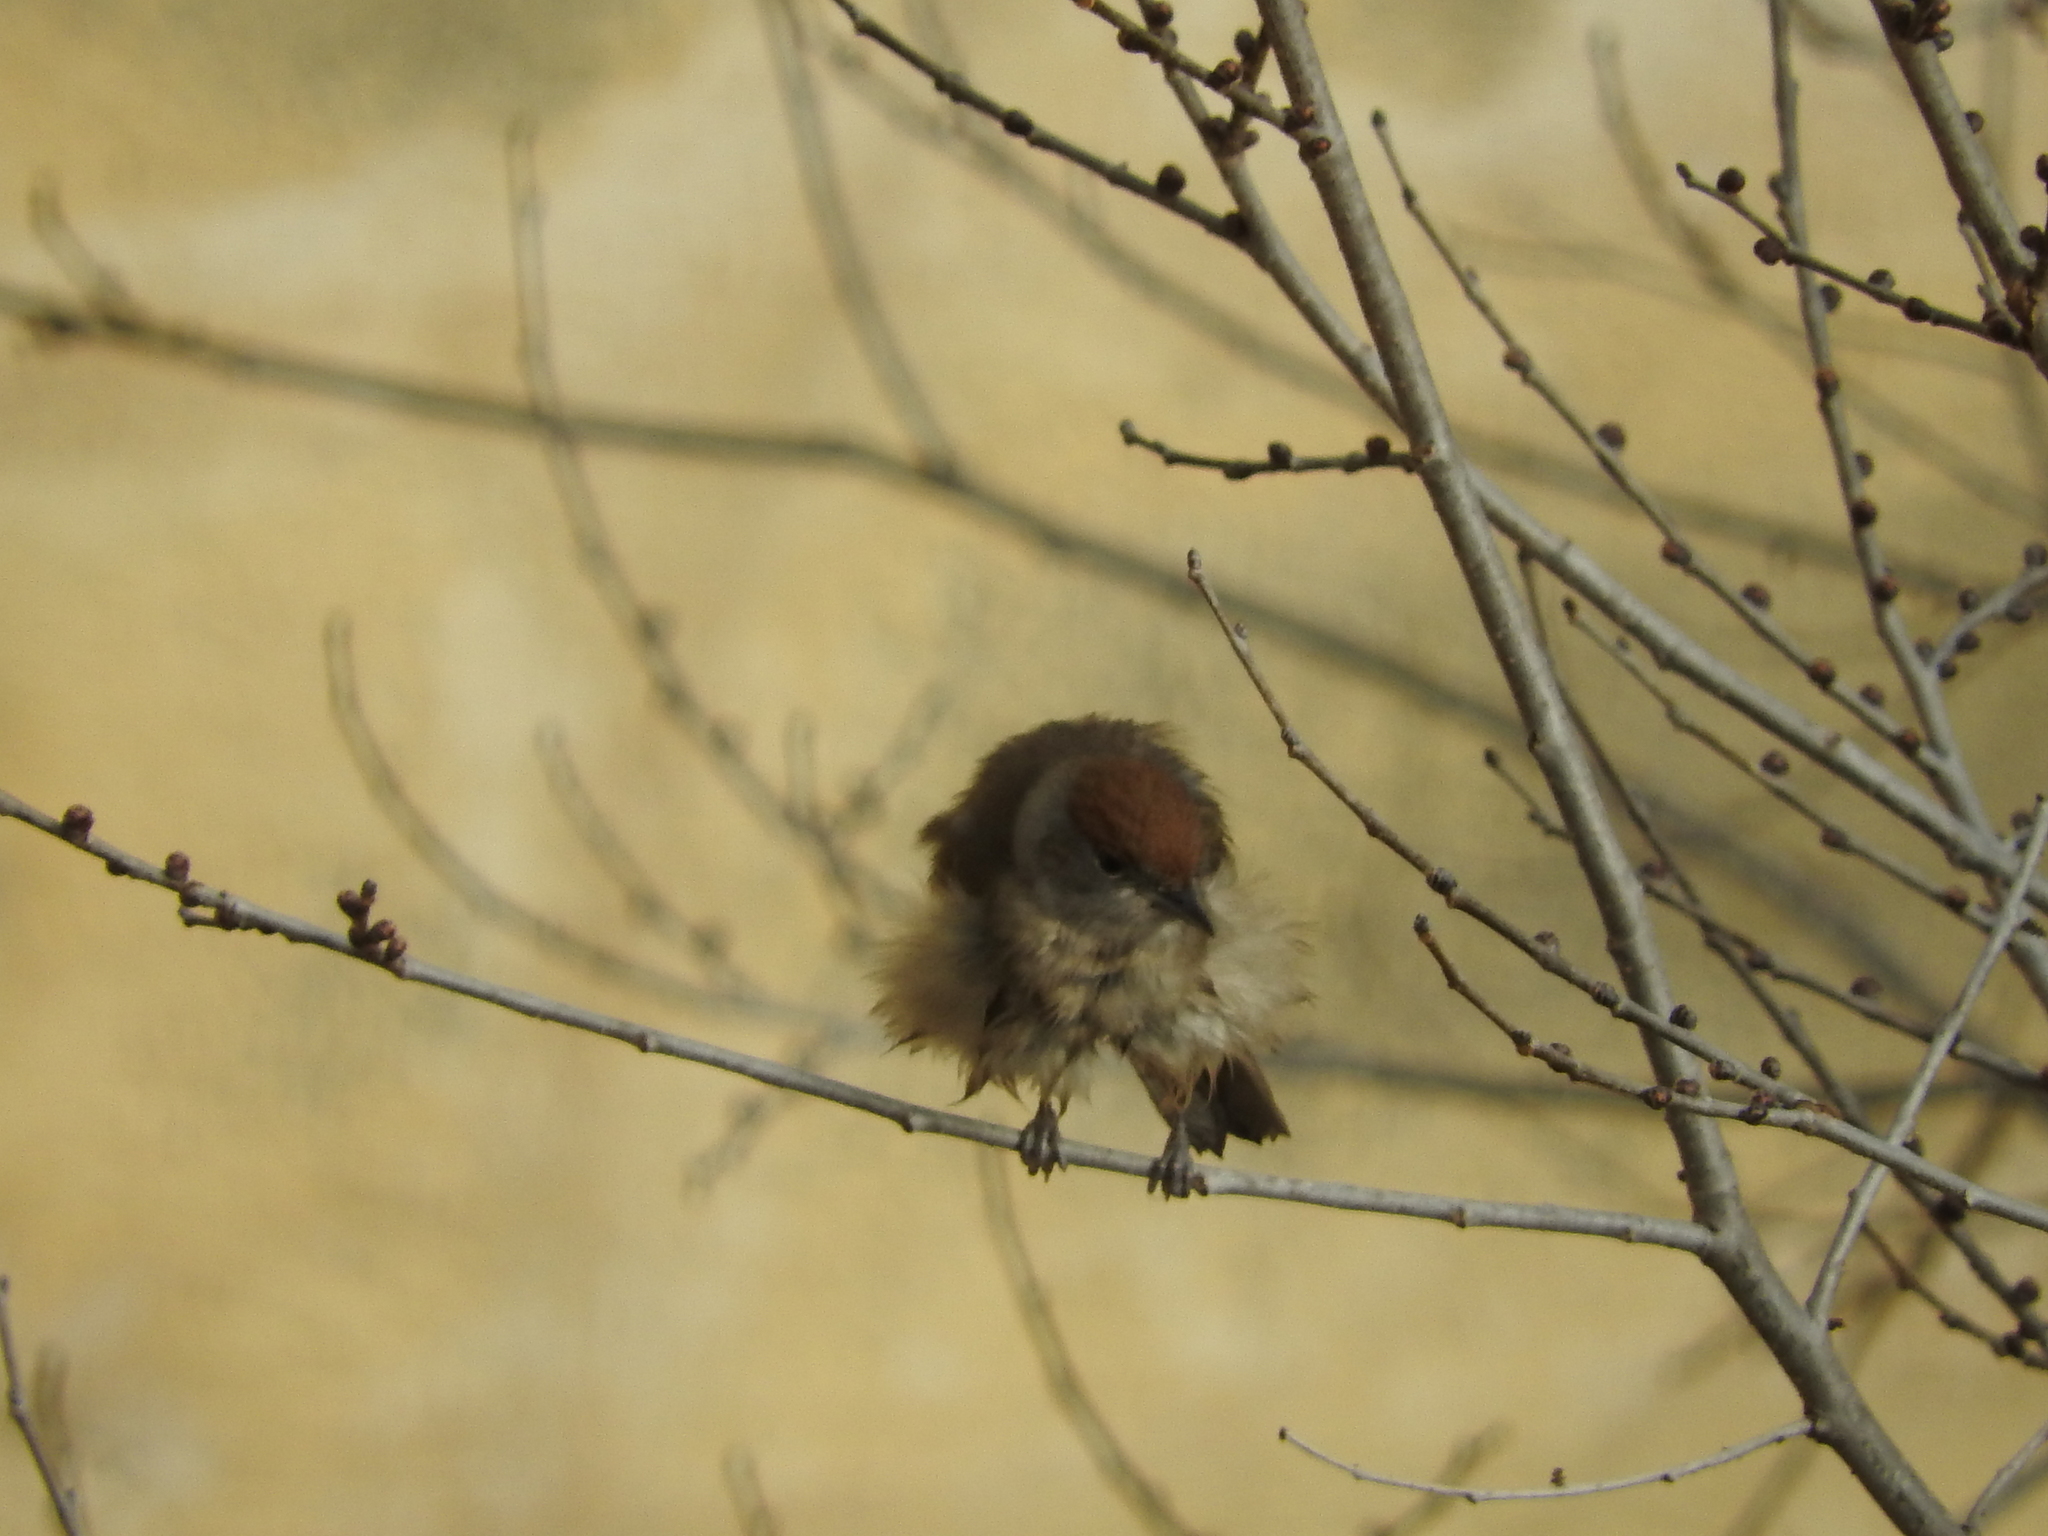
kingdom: Animalia
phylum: Chordata
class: Aves
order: Passeriformes
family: Sylviidae
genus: Sylvia
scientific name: Sylvia atricapilla
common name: Eurasian blackcap
